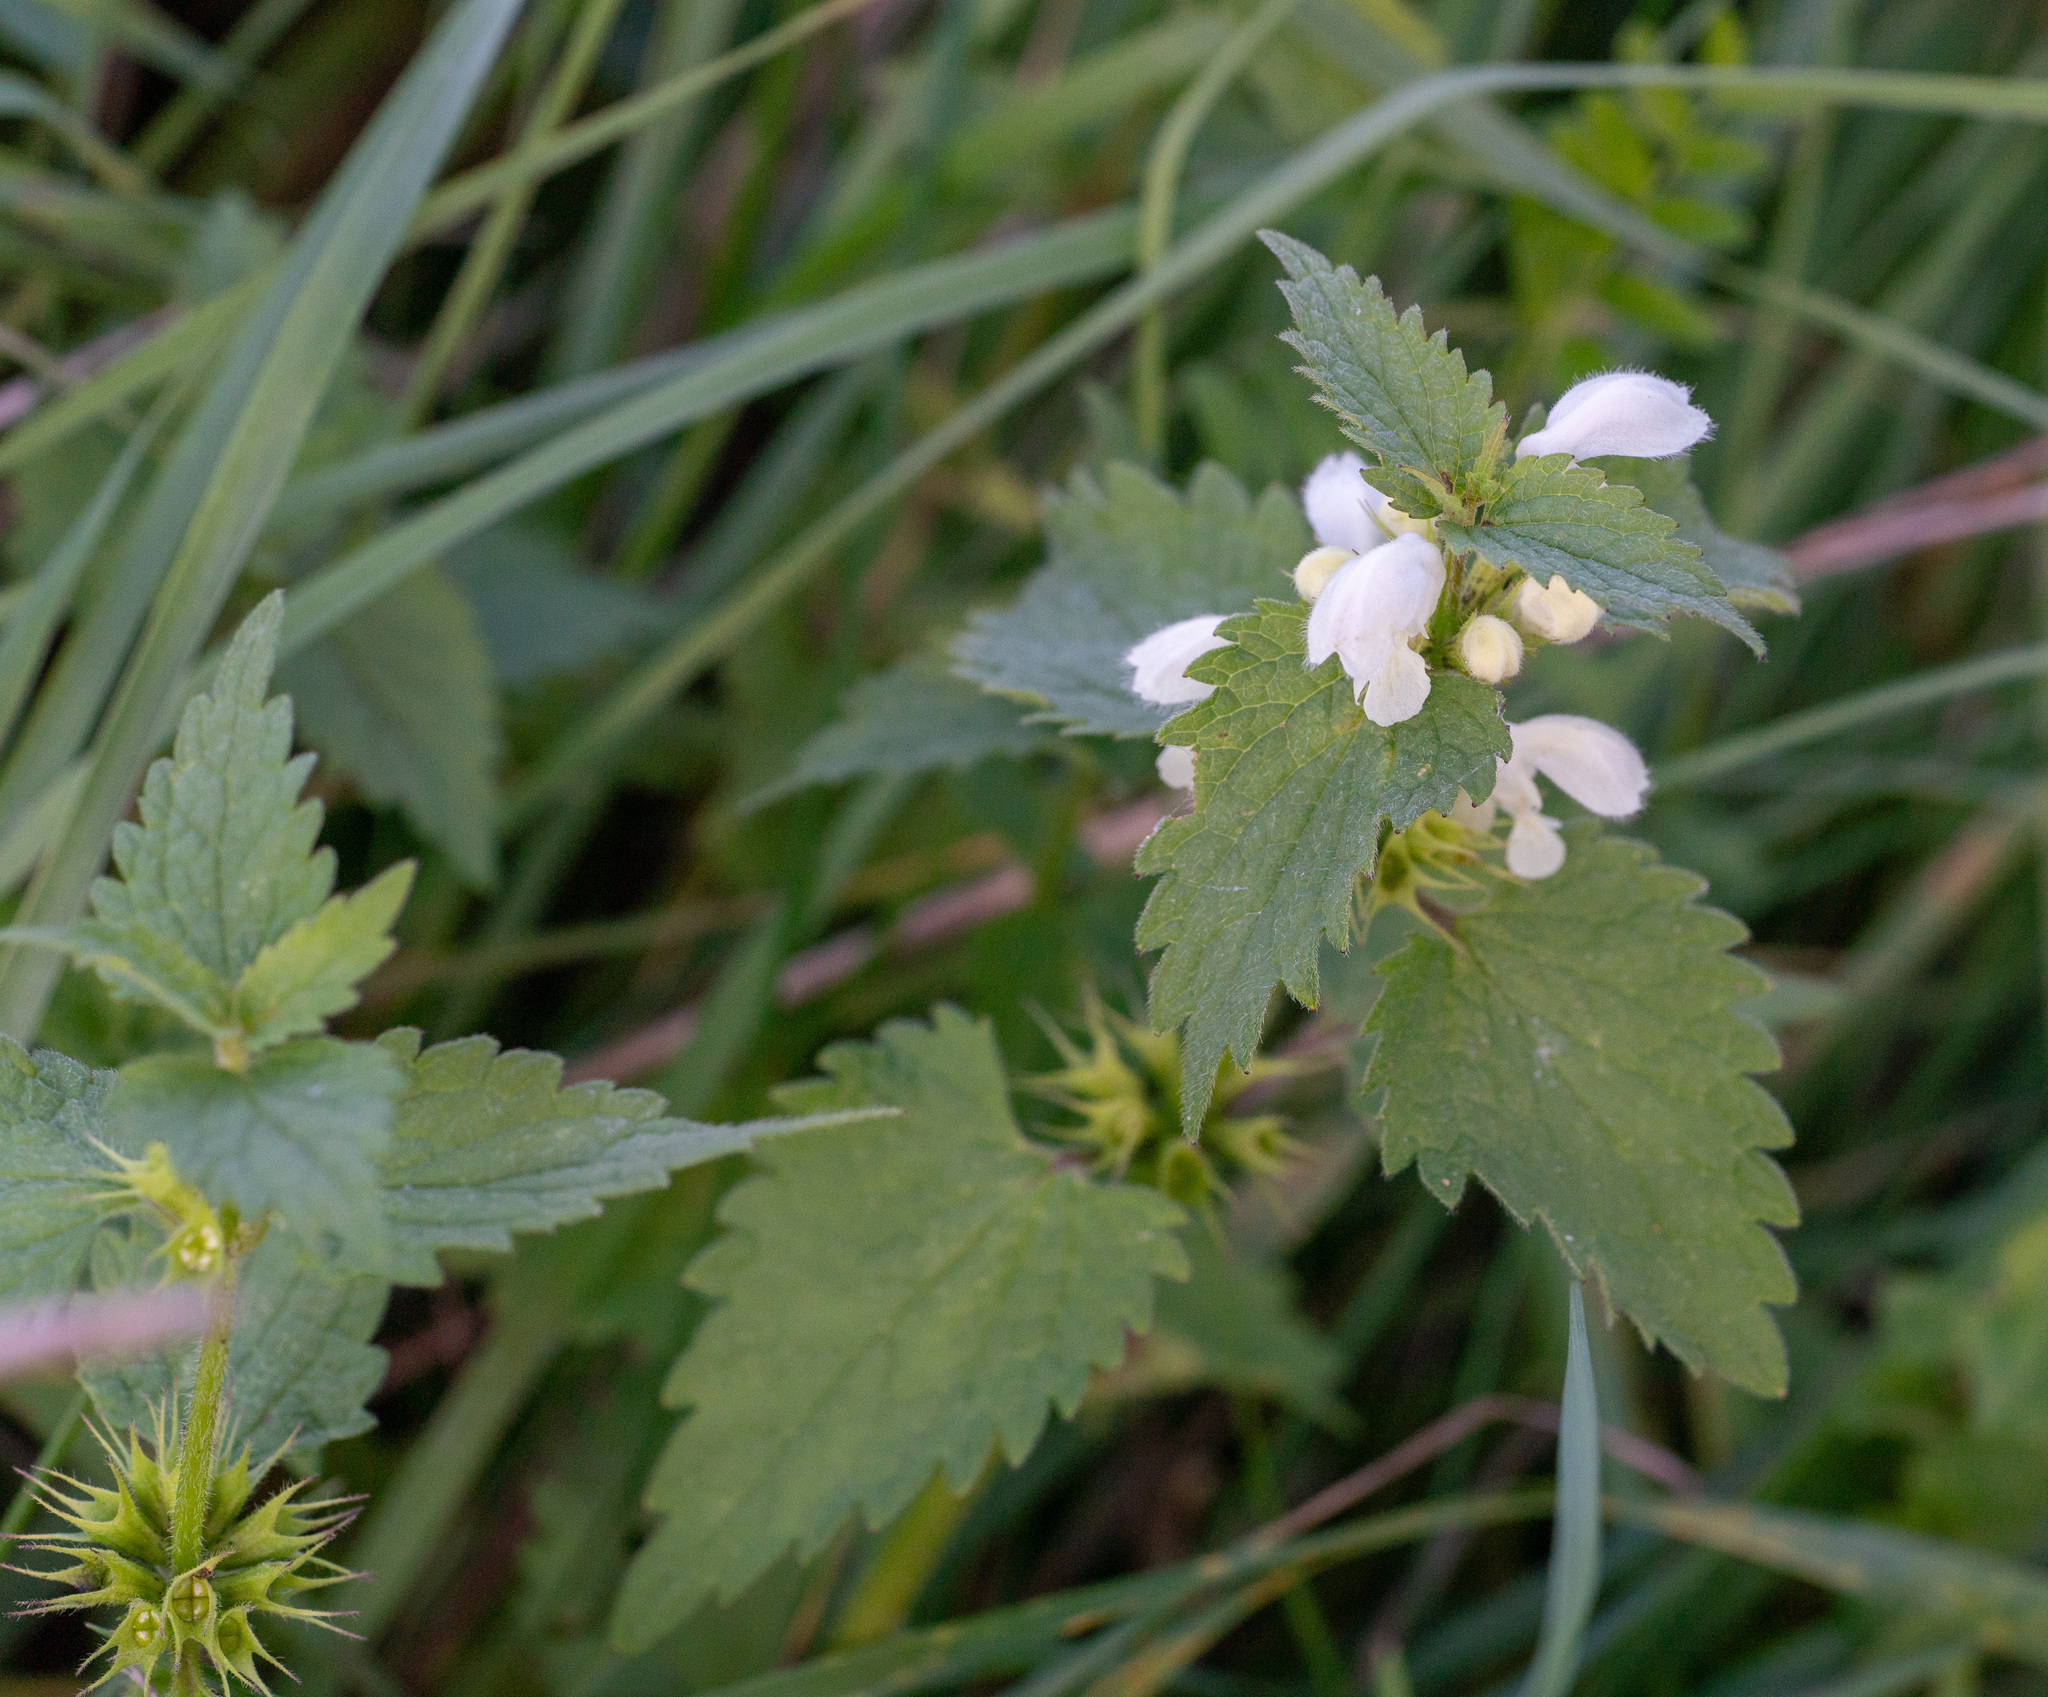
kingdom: Plantae
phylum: Tracheophyta
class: Magnoliopsida
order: Lamiales
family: Lamiaceae
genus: Lamium
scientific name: Lamium album
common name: White dead-nettle
